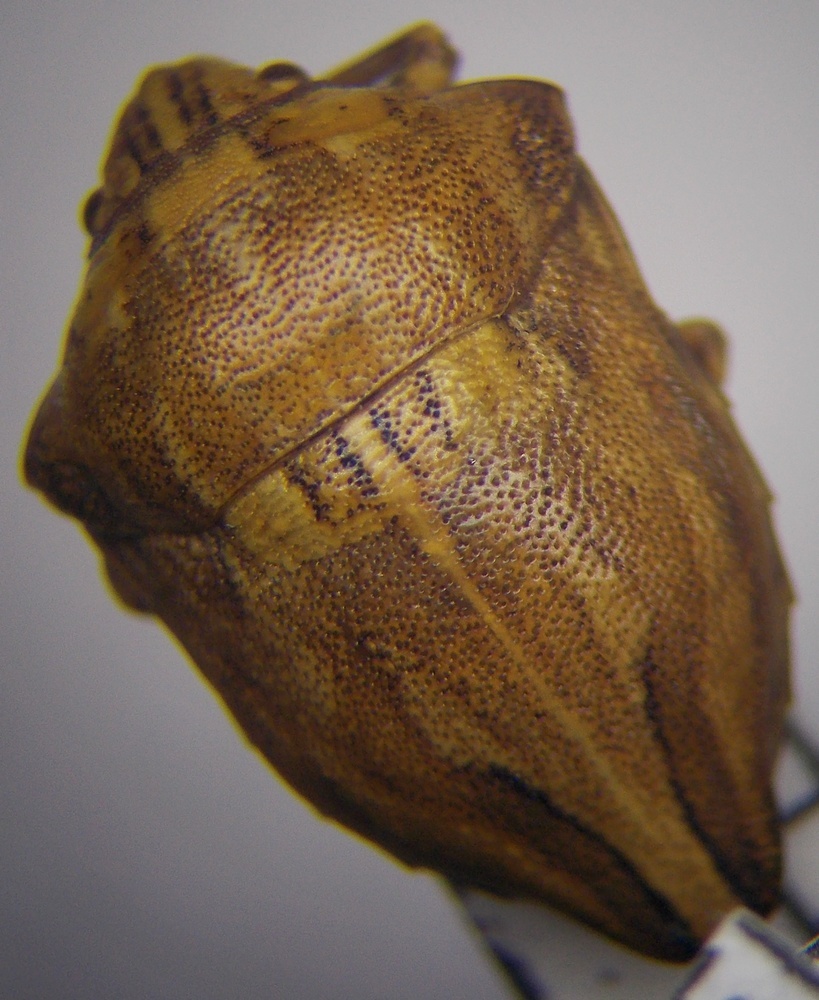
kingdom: Animalia
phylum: Arthropoda
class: Insecta
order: Hemiptera
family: Scutelleridae
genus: Odontotarsus
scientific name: Odontotarsus robustus
